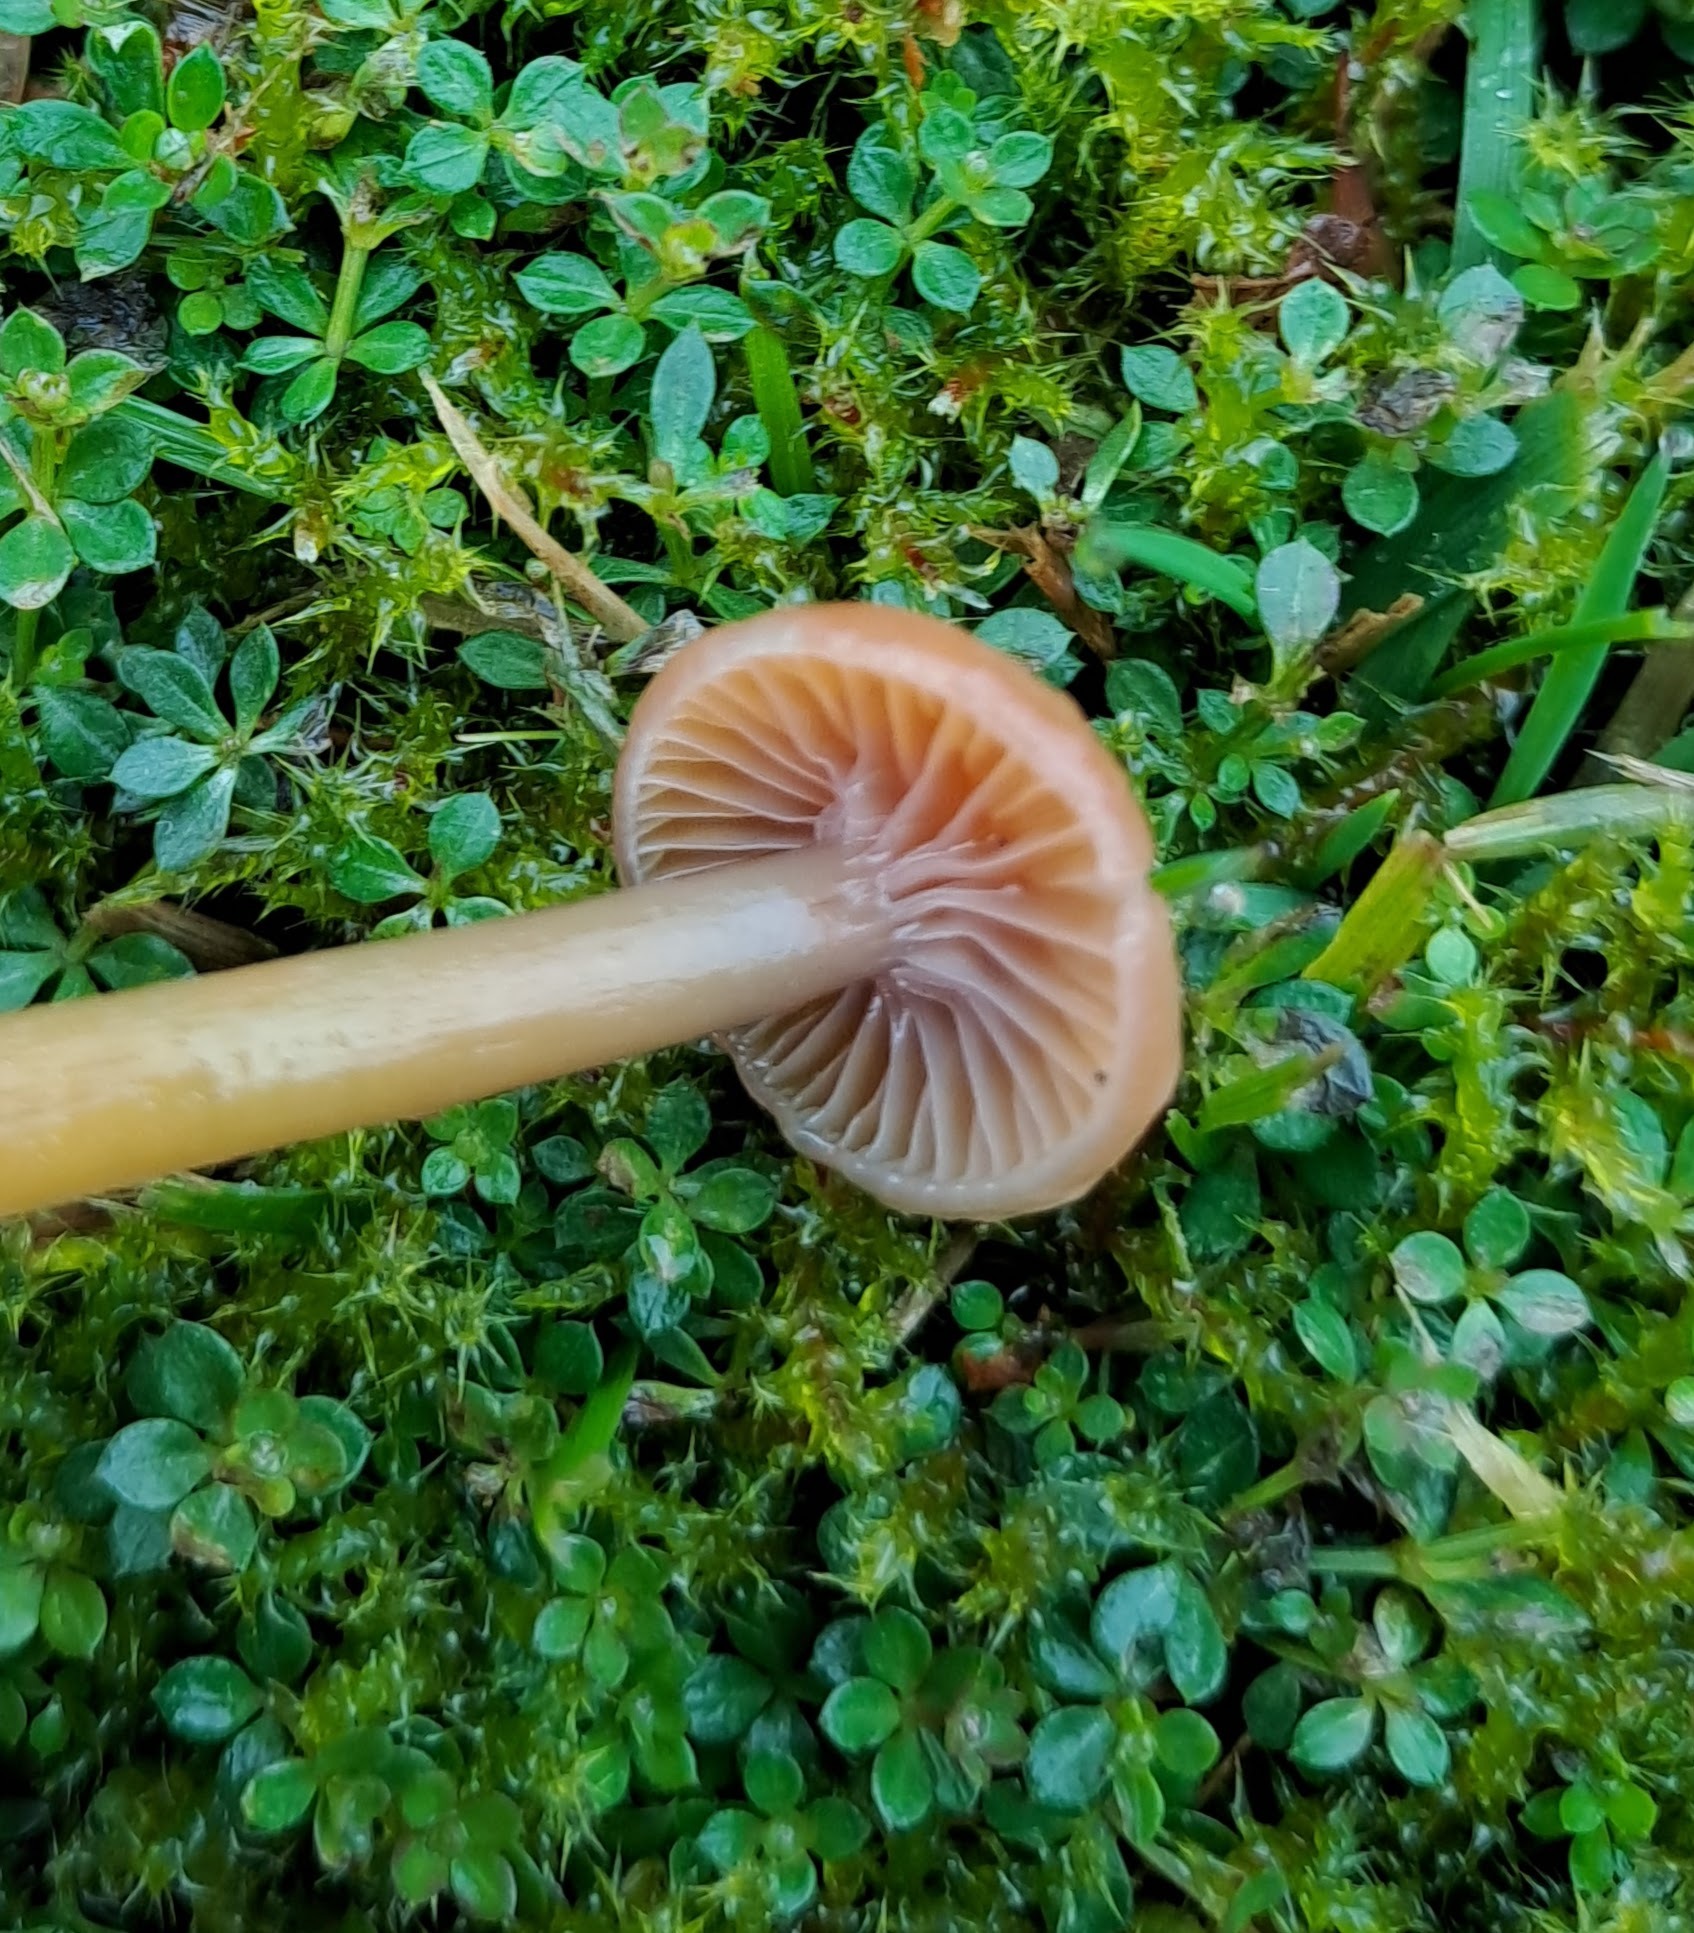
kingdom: Fungi
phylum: Basidiomycota
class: Agaricomycetes
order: Agaricales
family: Hygrophoraceae
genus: Gliophorus
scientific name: Gliophorus laetus
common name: Heath waxcap
